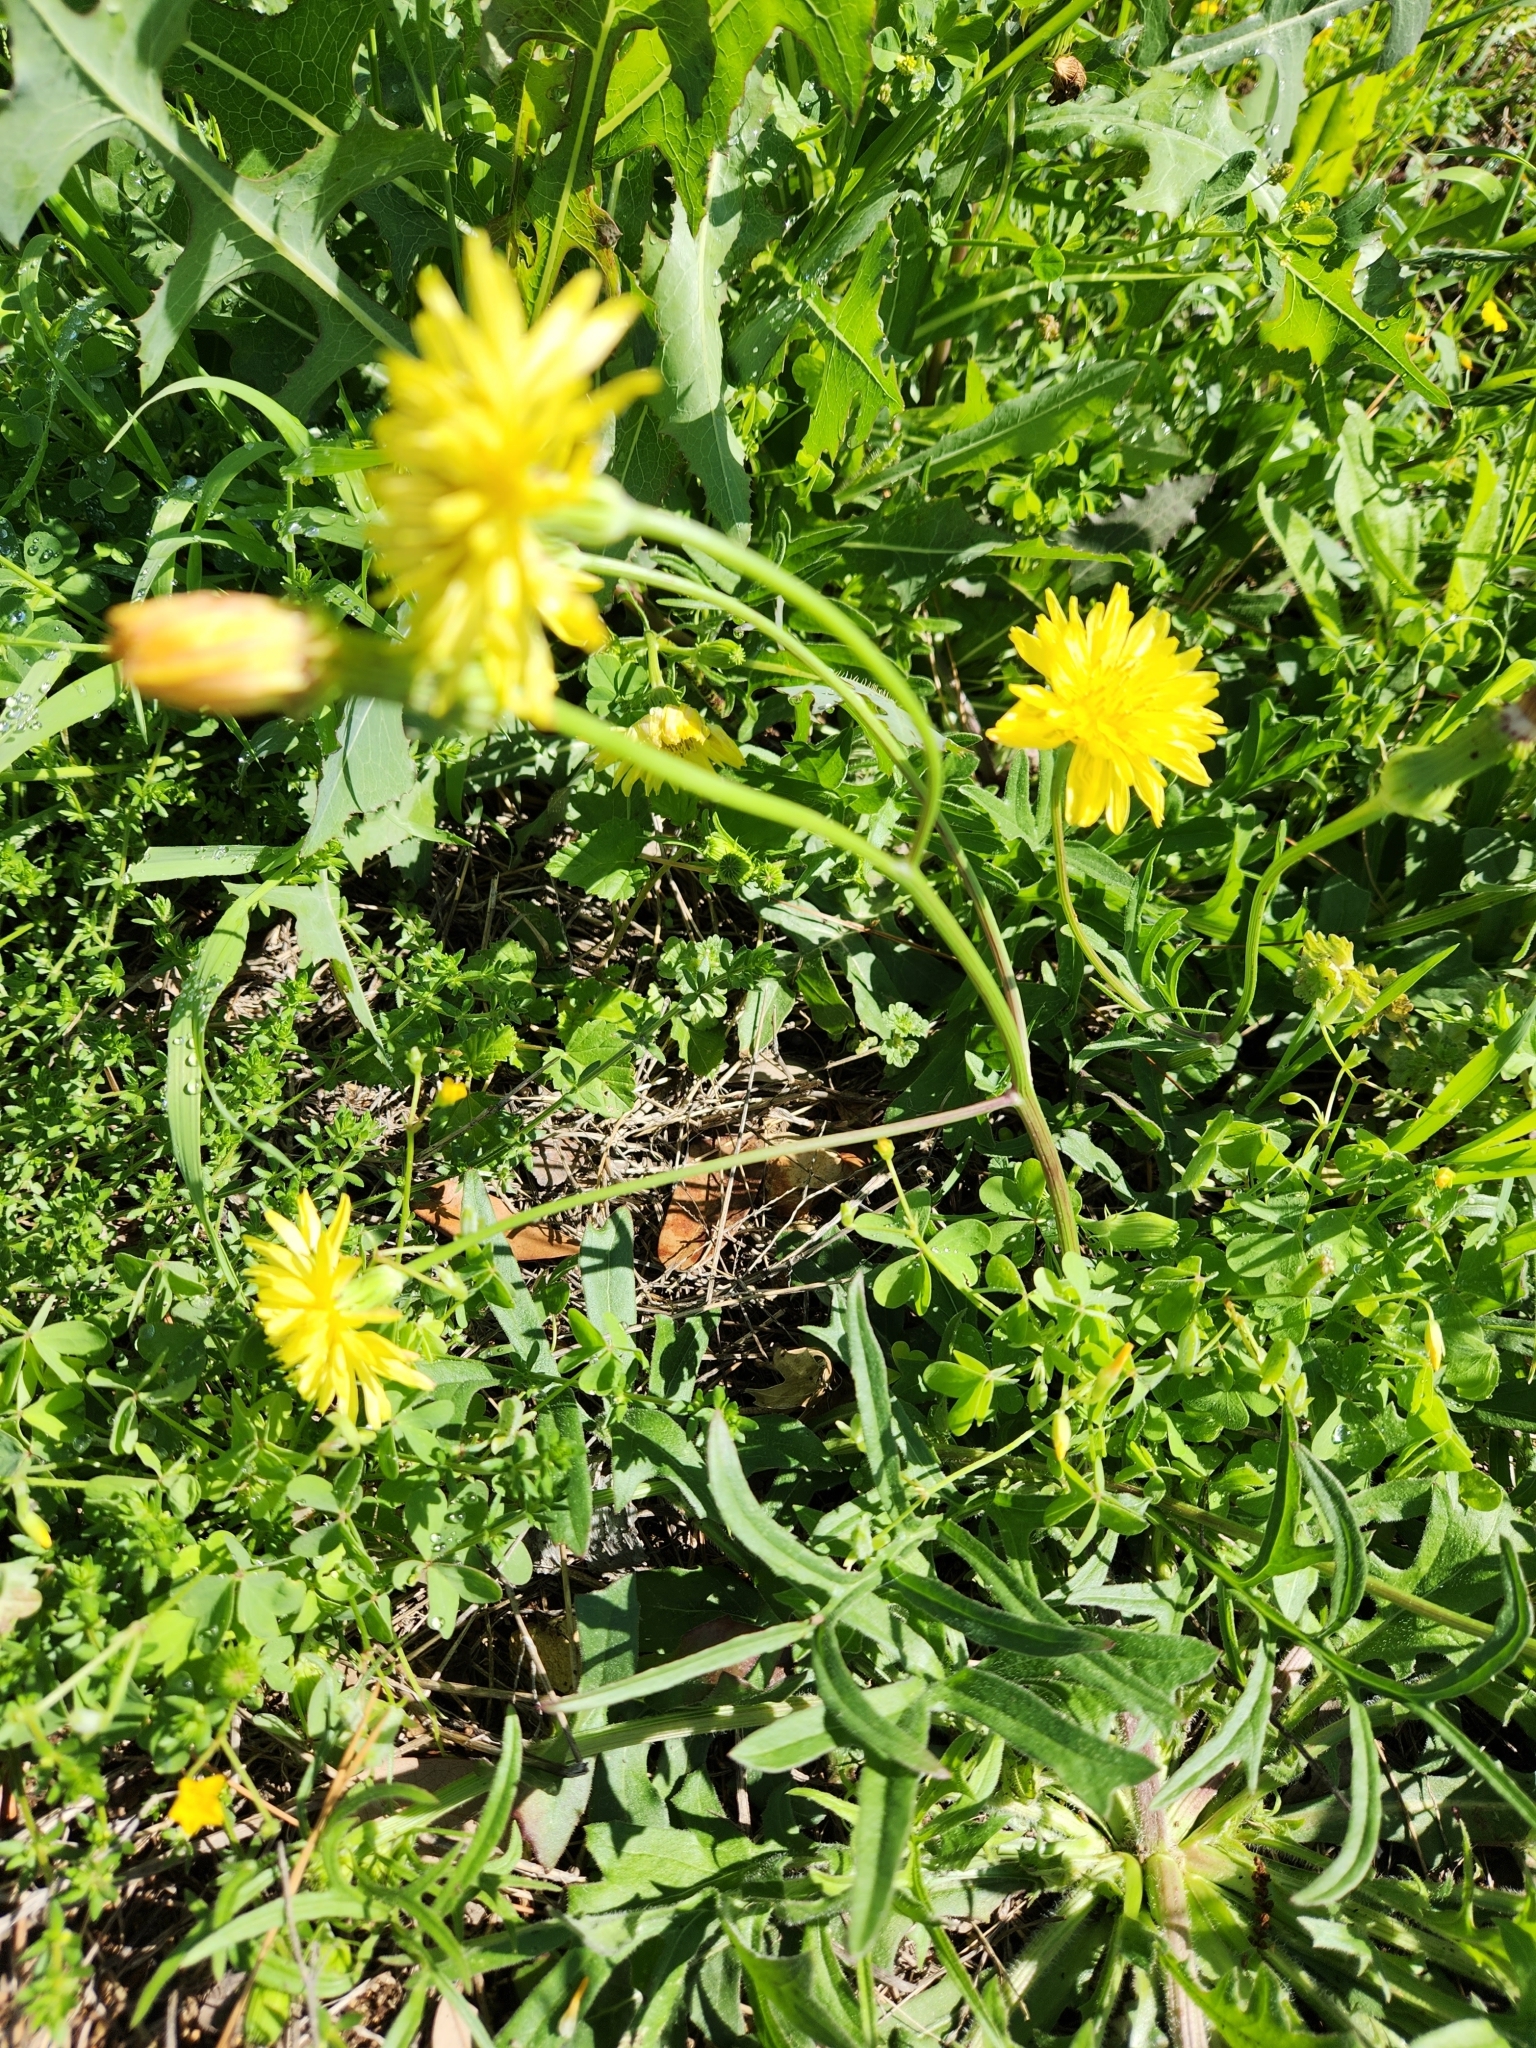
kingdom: Plantae
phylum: Tracheophyta
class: Magnoliopsida
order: Asterales
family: Asteraceae
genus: Pyrrhopappus
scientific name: Pyrrhopappus pauciflorus
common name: Texas false dandelion
